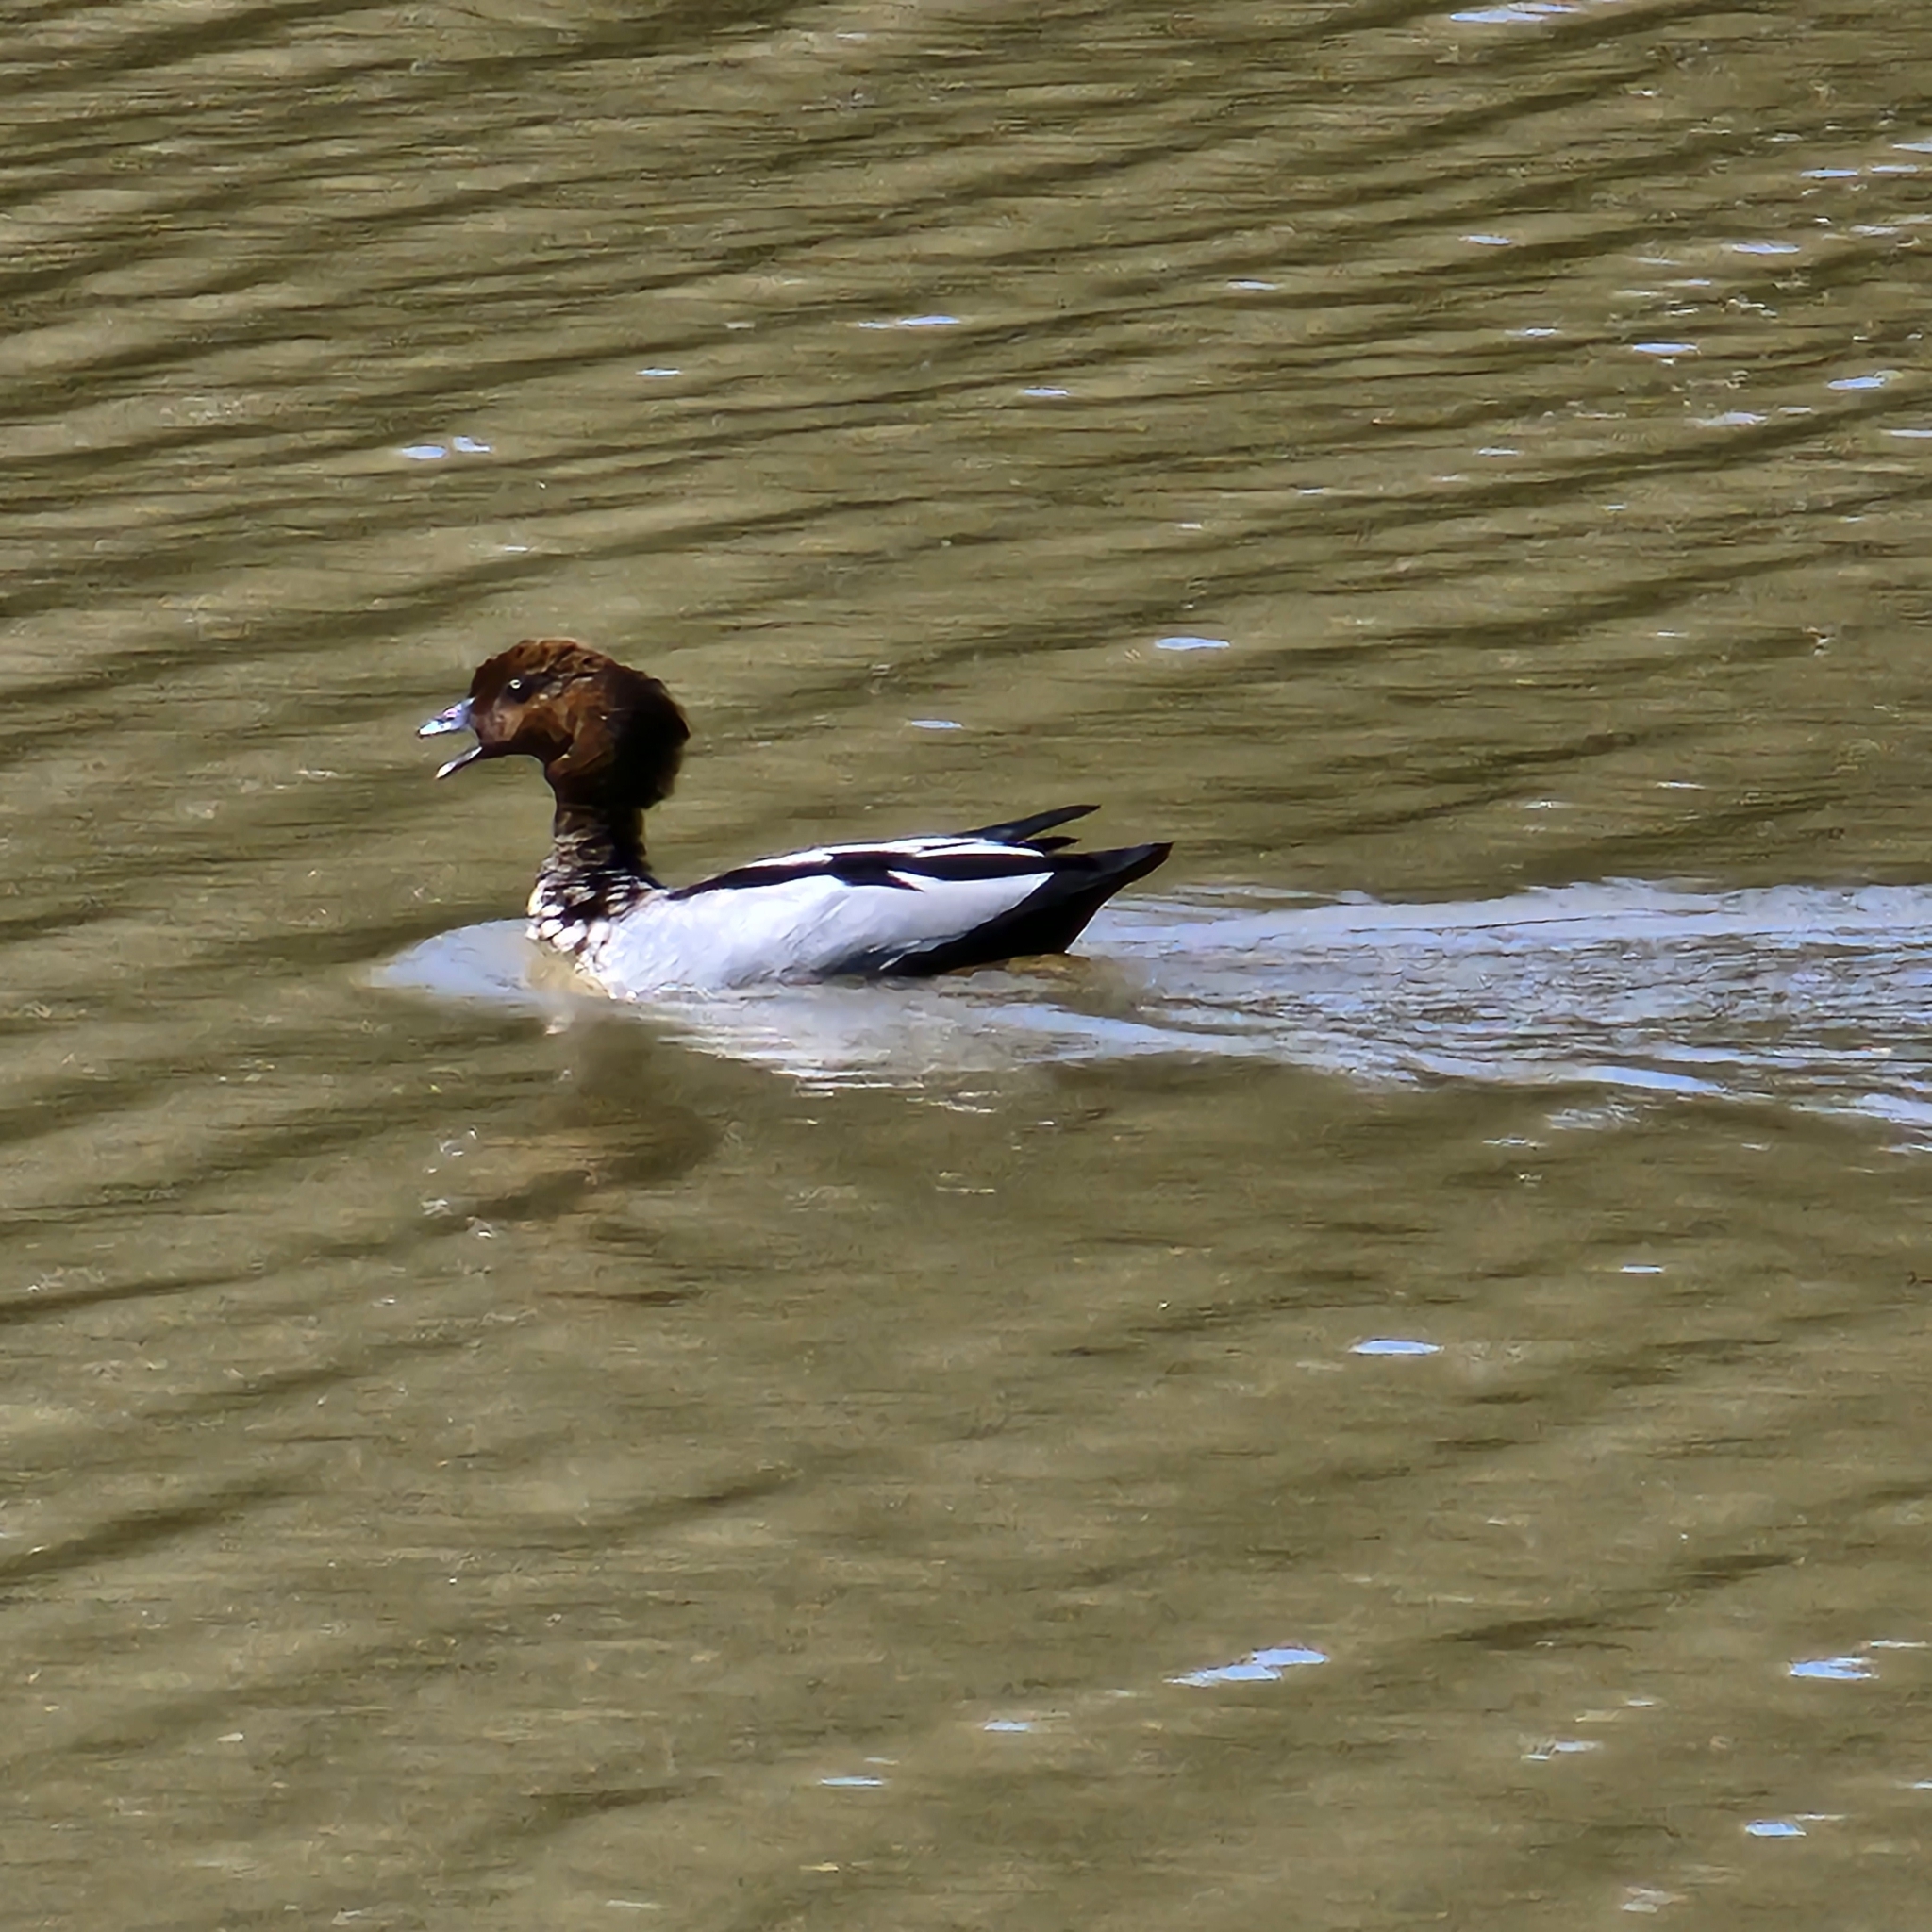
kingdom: Animalia
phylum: Chordata
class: Aves
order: Anseriformes
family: Anatidae
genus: Chenonetta
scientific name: Chenonetta jubata
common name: Maned duck
